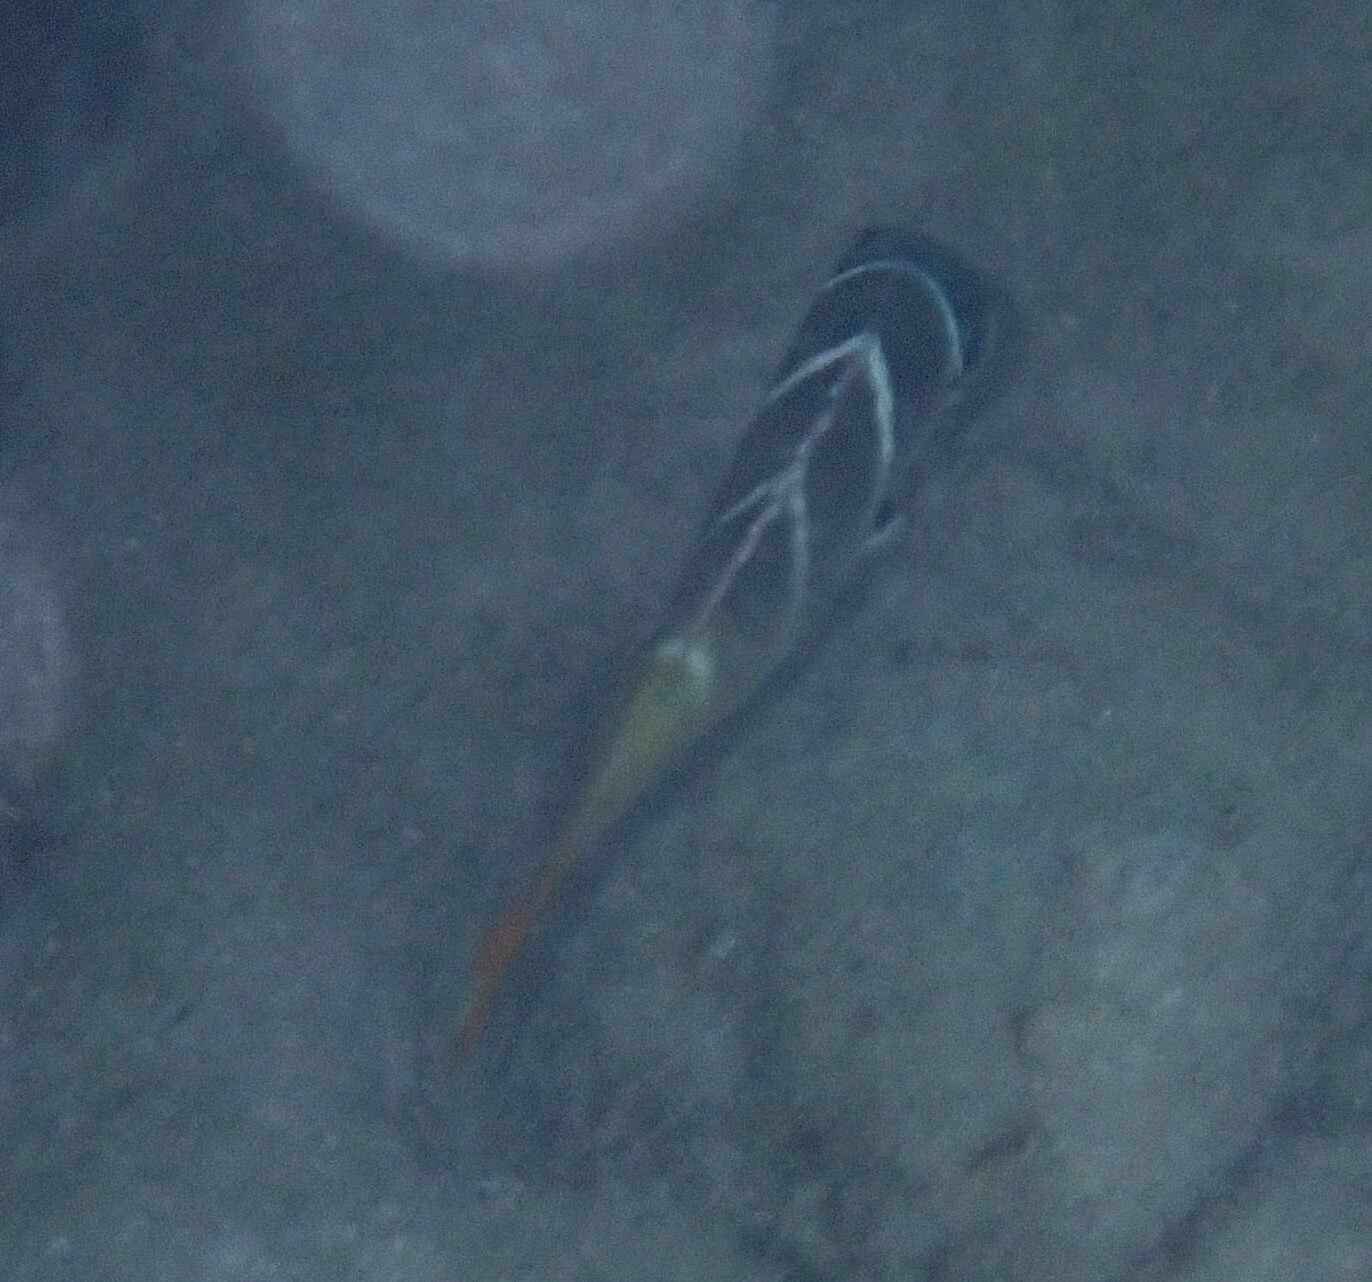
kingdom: Animalia
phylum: Chordata
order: Perciformes
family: Lethrinidae
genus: Monotaxis
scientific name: Monotaxis heterodon
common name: Redfin emperor
